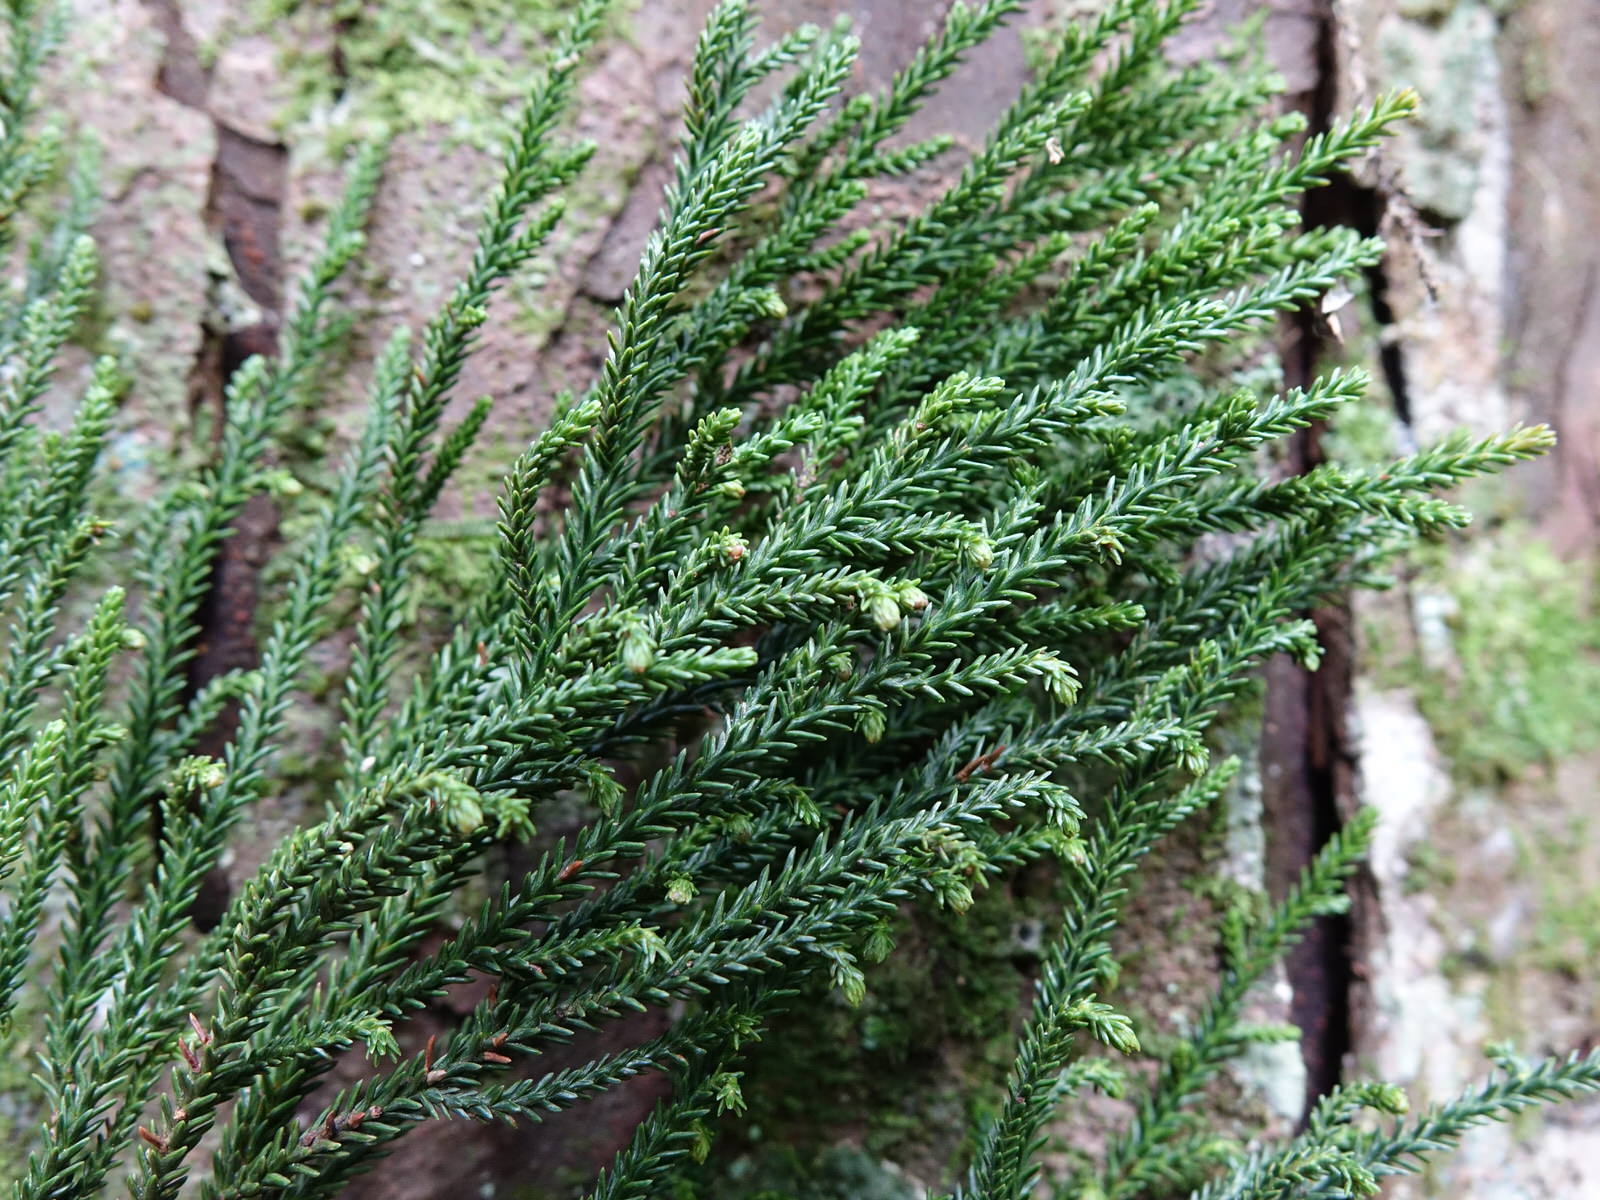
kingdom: Plantae
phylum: Tracheophyta
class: Pinopsida
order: Pinales
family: Podocarpaceae
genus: Dacrydium
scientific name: Dacrydium cupressinum
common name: Red pine
